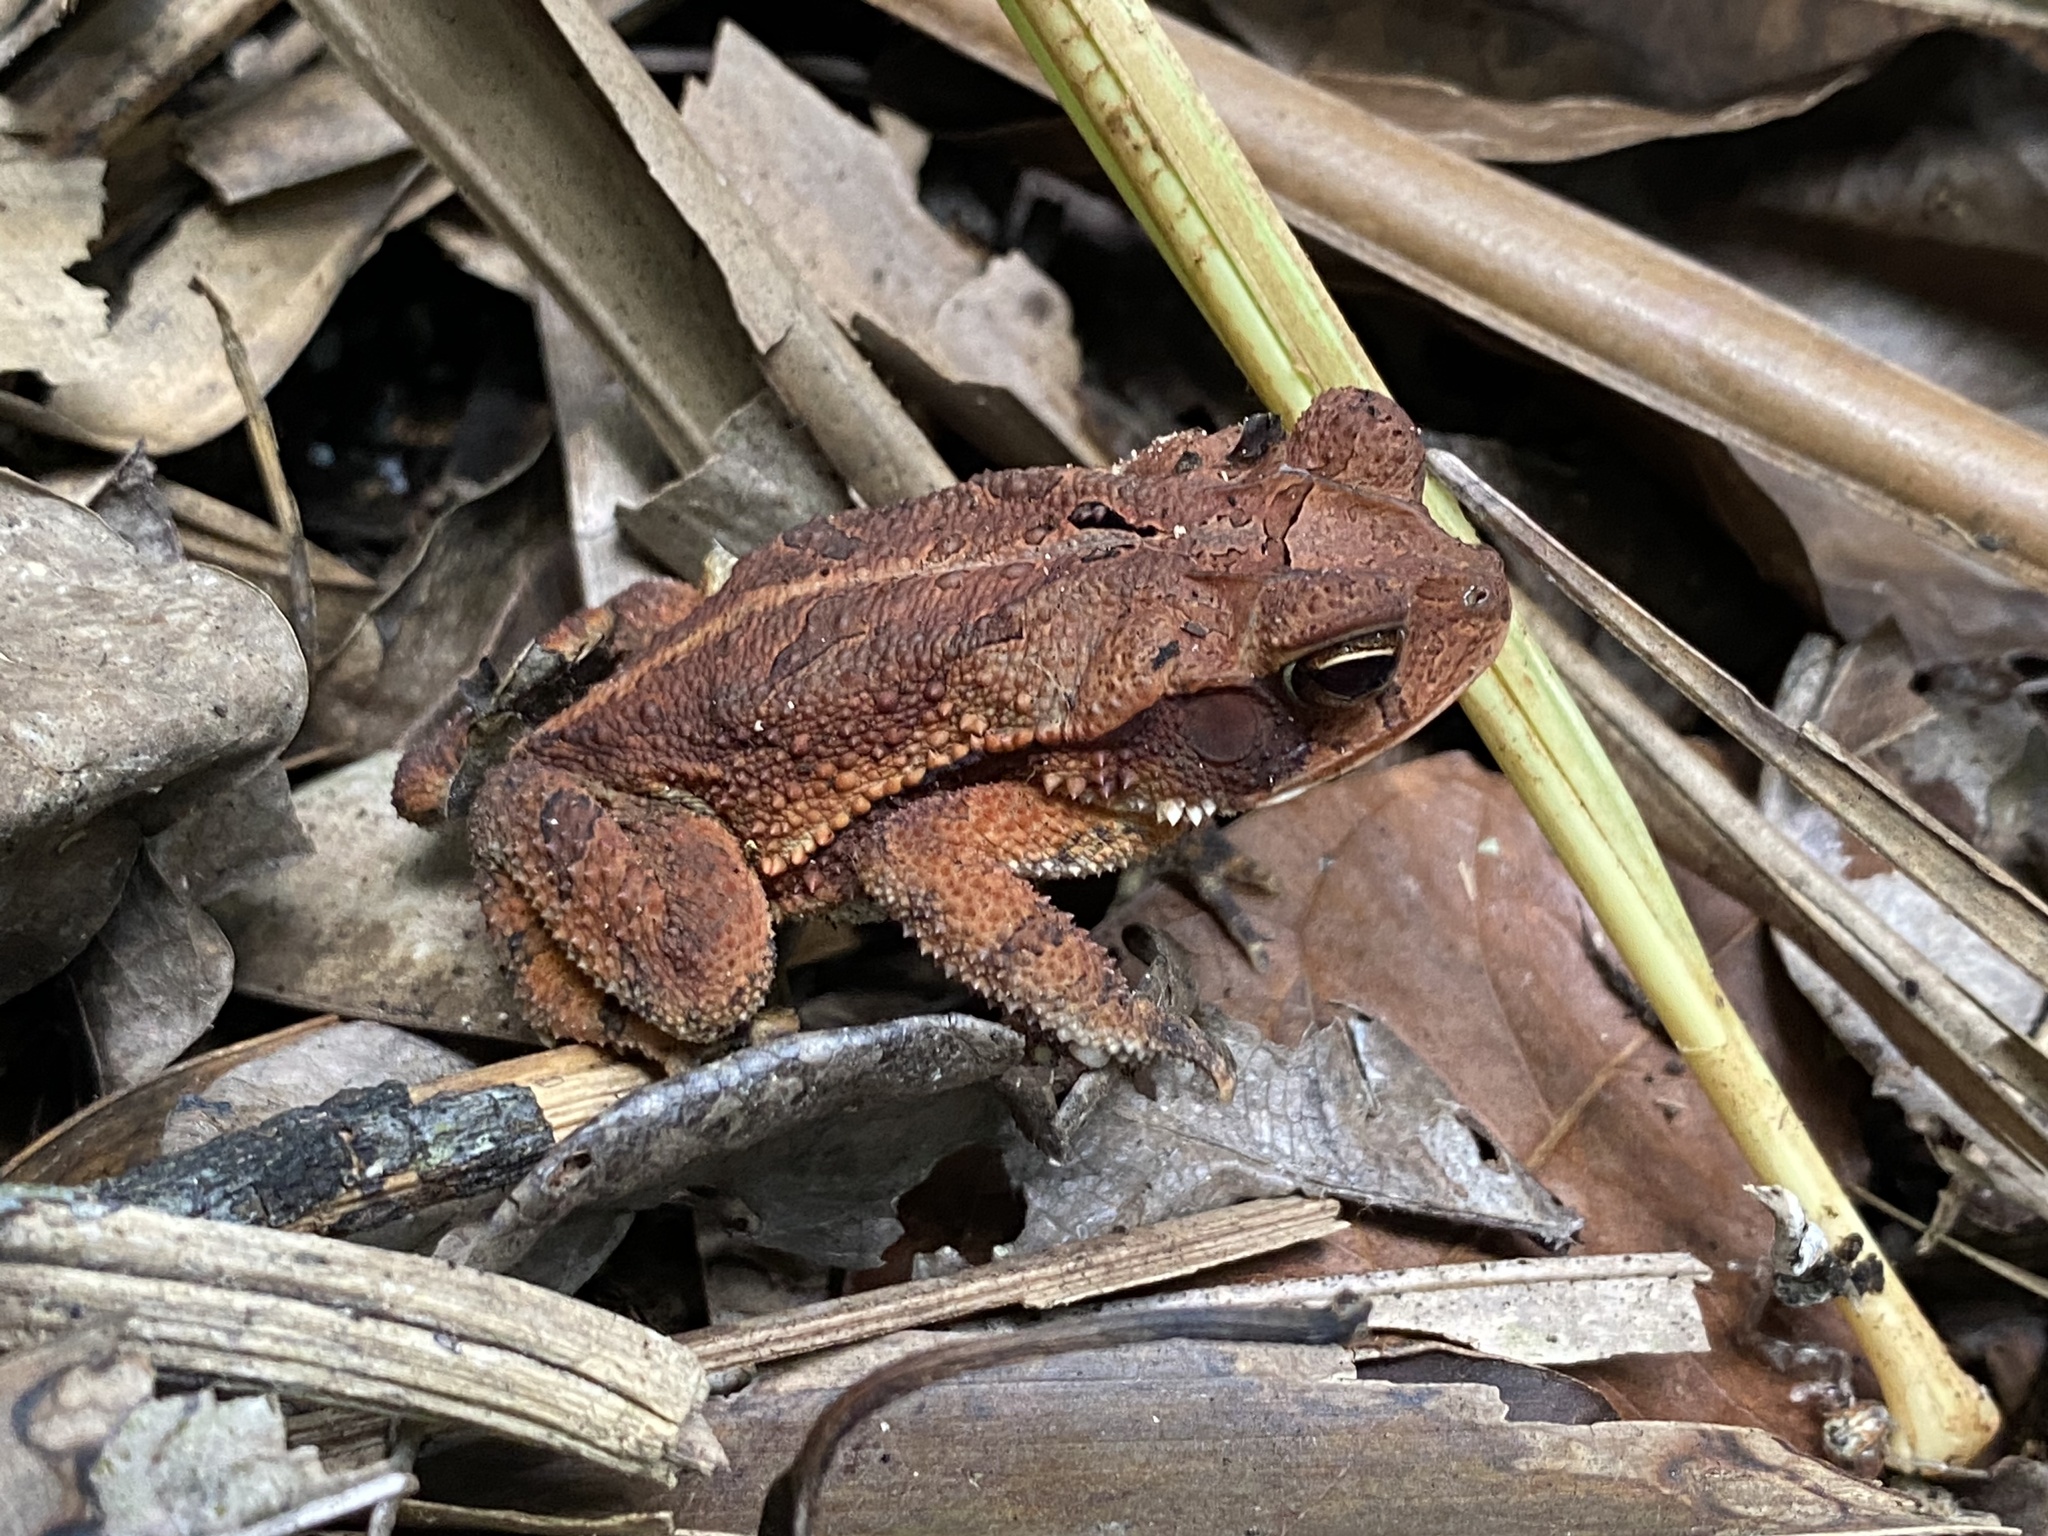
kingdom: Animalia
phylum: Chordata
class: Amphibia
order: Anura
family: Bufonidae
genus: Incilius
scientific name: Incilius valliceps
